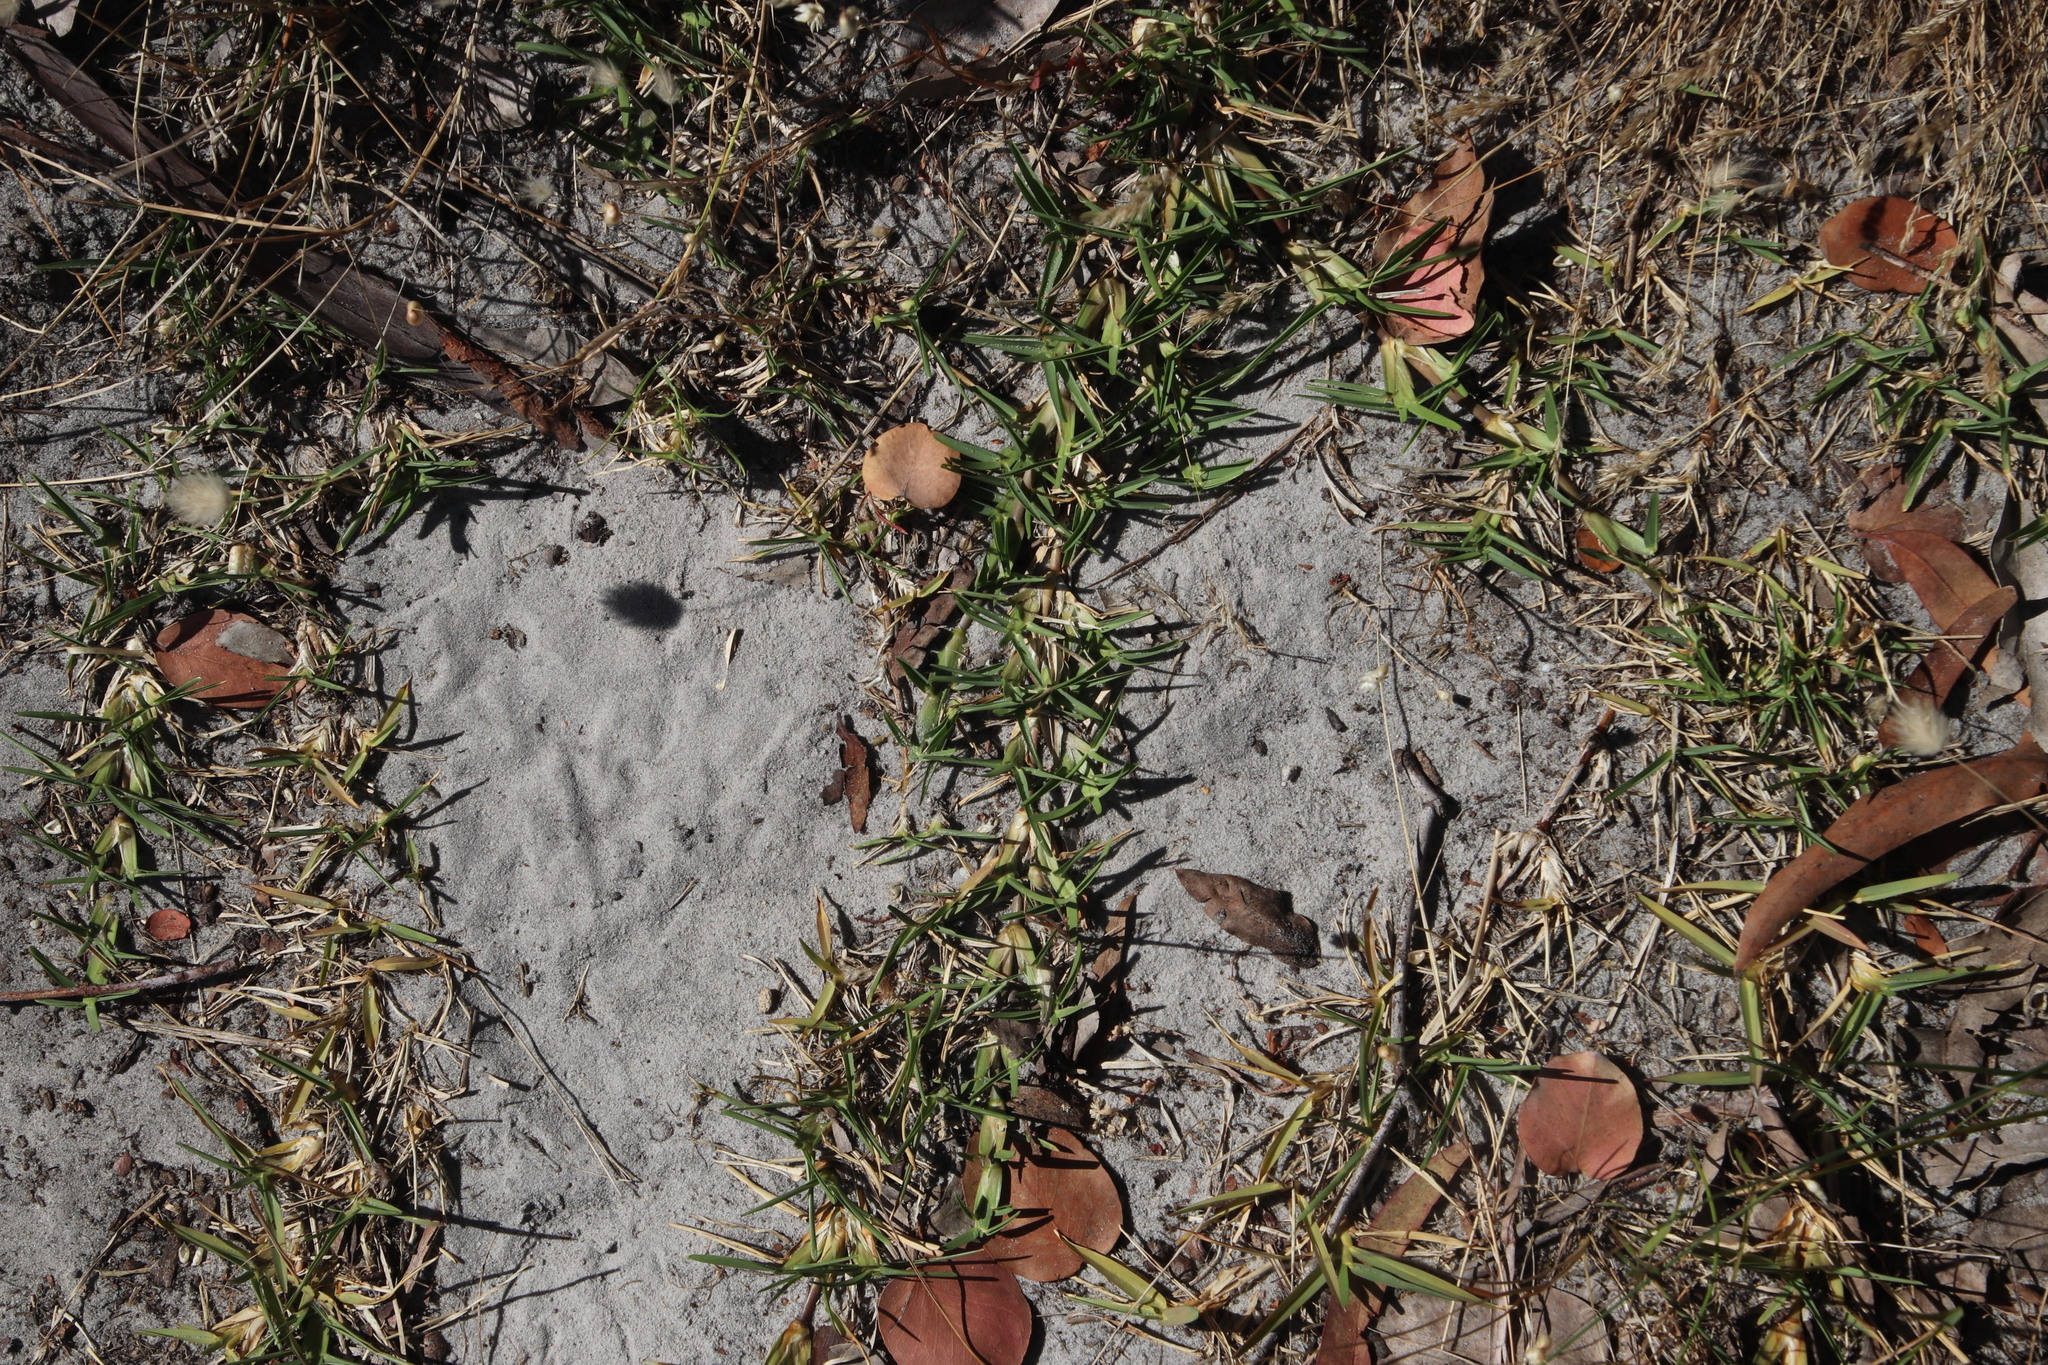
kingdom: Plantae
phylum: Tracheophyta
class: Liliopsida
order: Poales
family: Poaceae
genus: Stenotaphrum
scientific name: Stenotaphrum secundatum
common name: St. augustine grass
